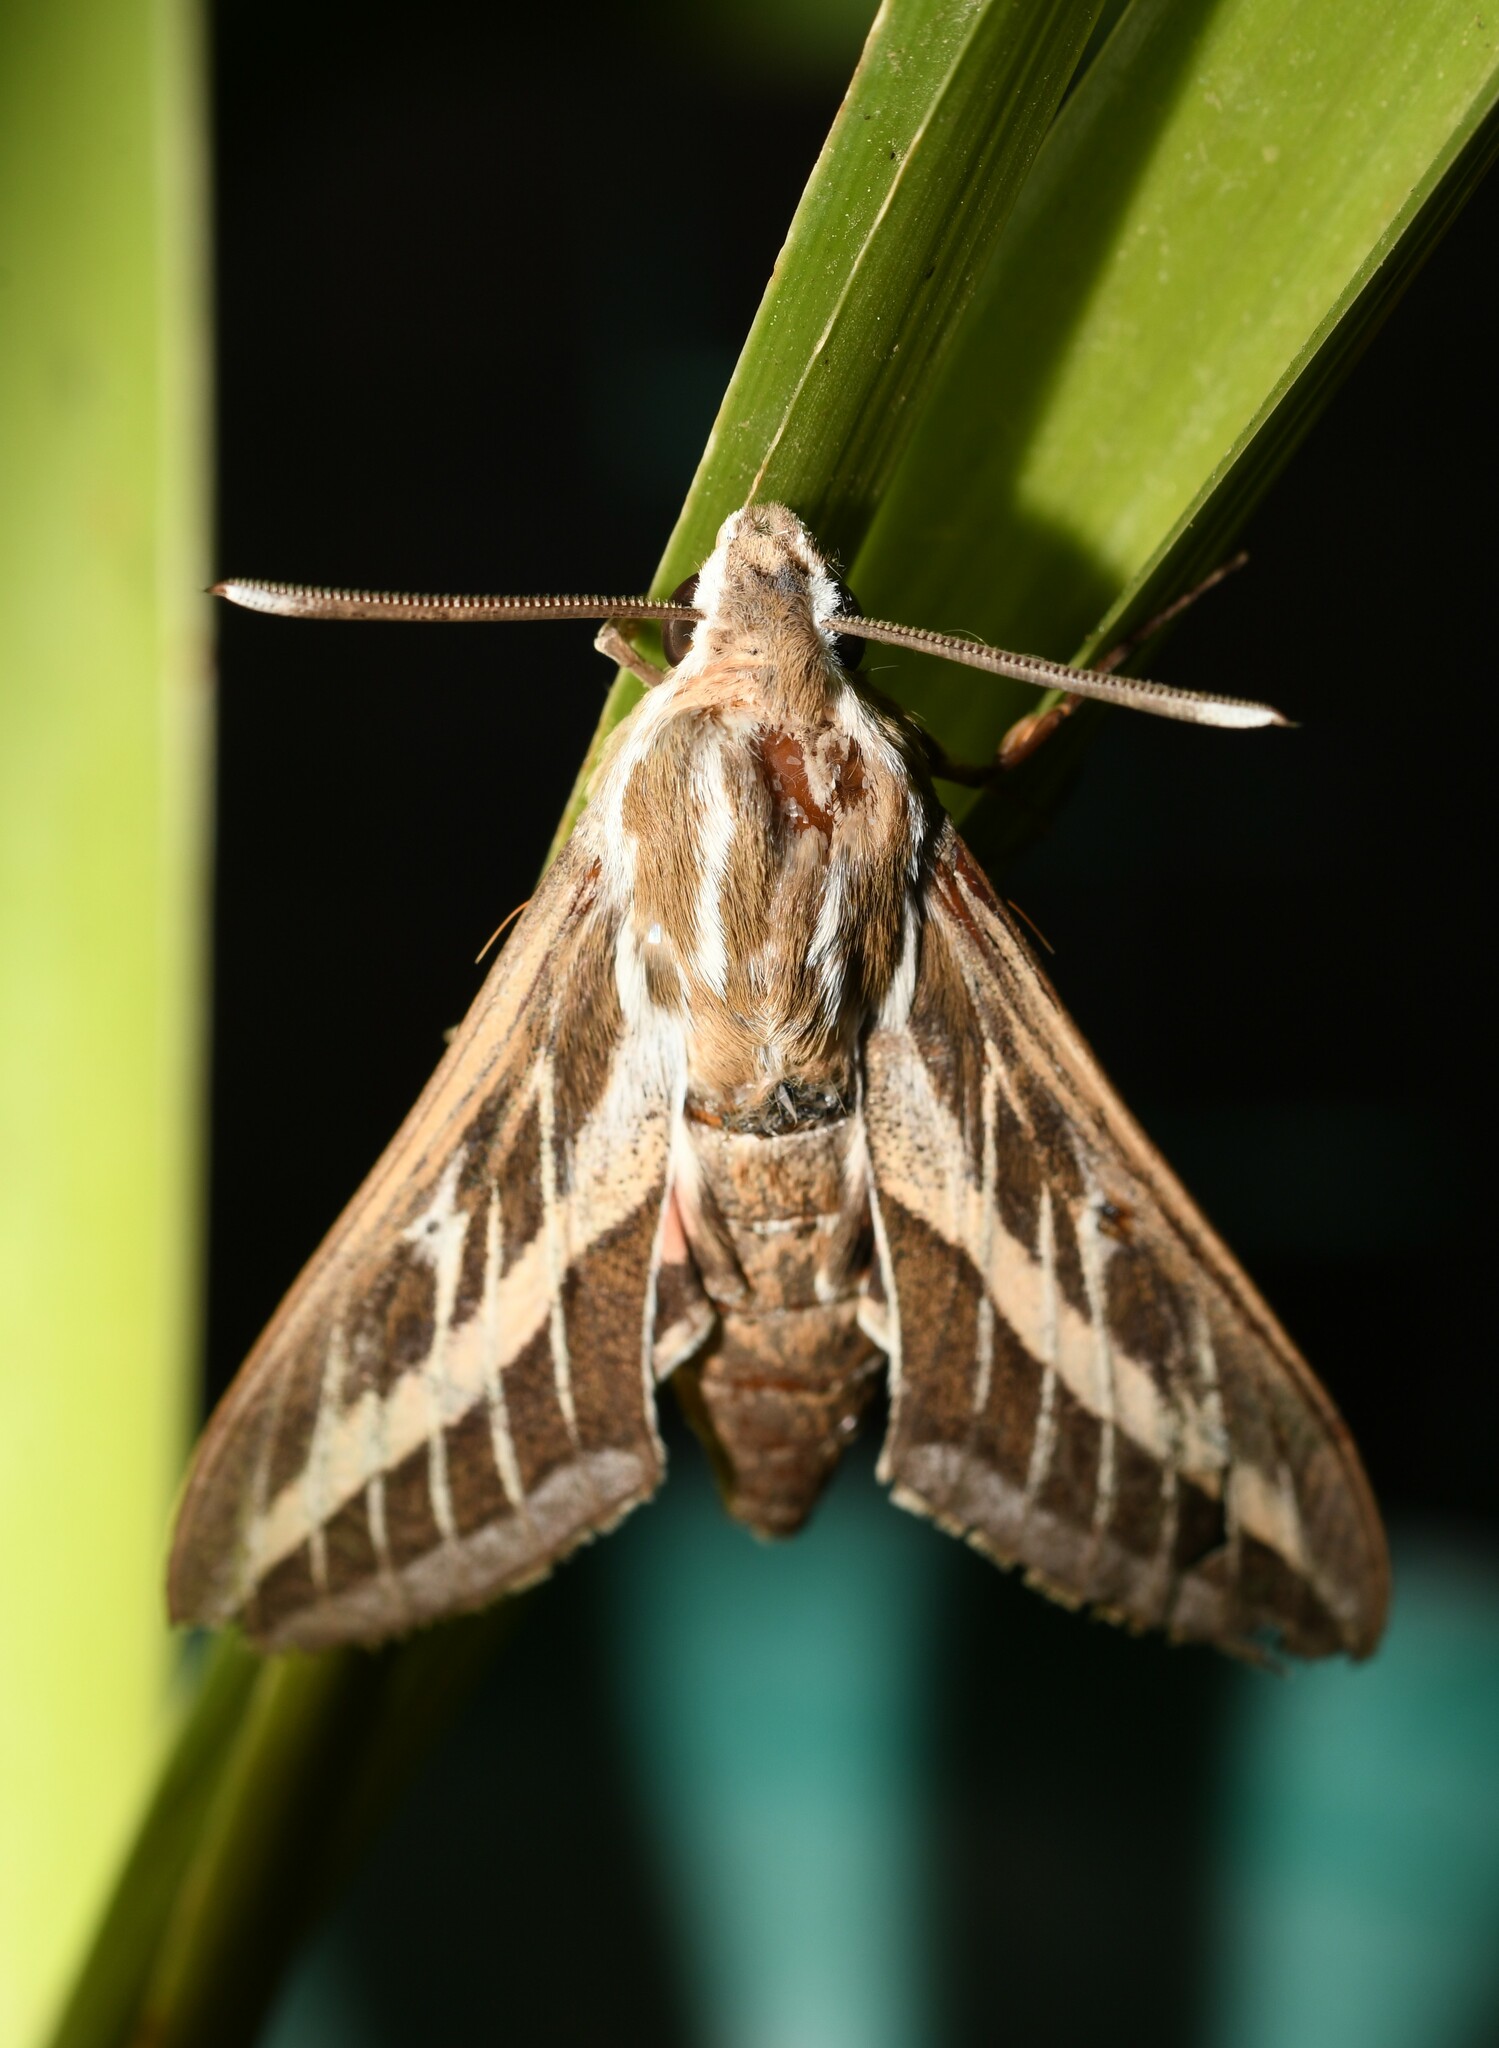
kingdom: Animalia
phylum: Arthropoda
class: Insecta
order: Lepidoptera
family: Sphingidae
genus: Hyles
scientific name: Hyles livornica
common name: Striped hawk-moth
